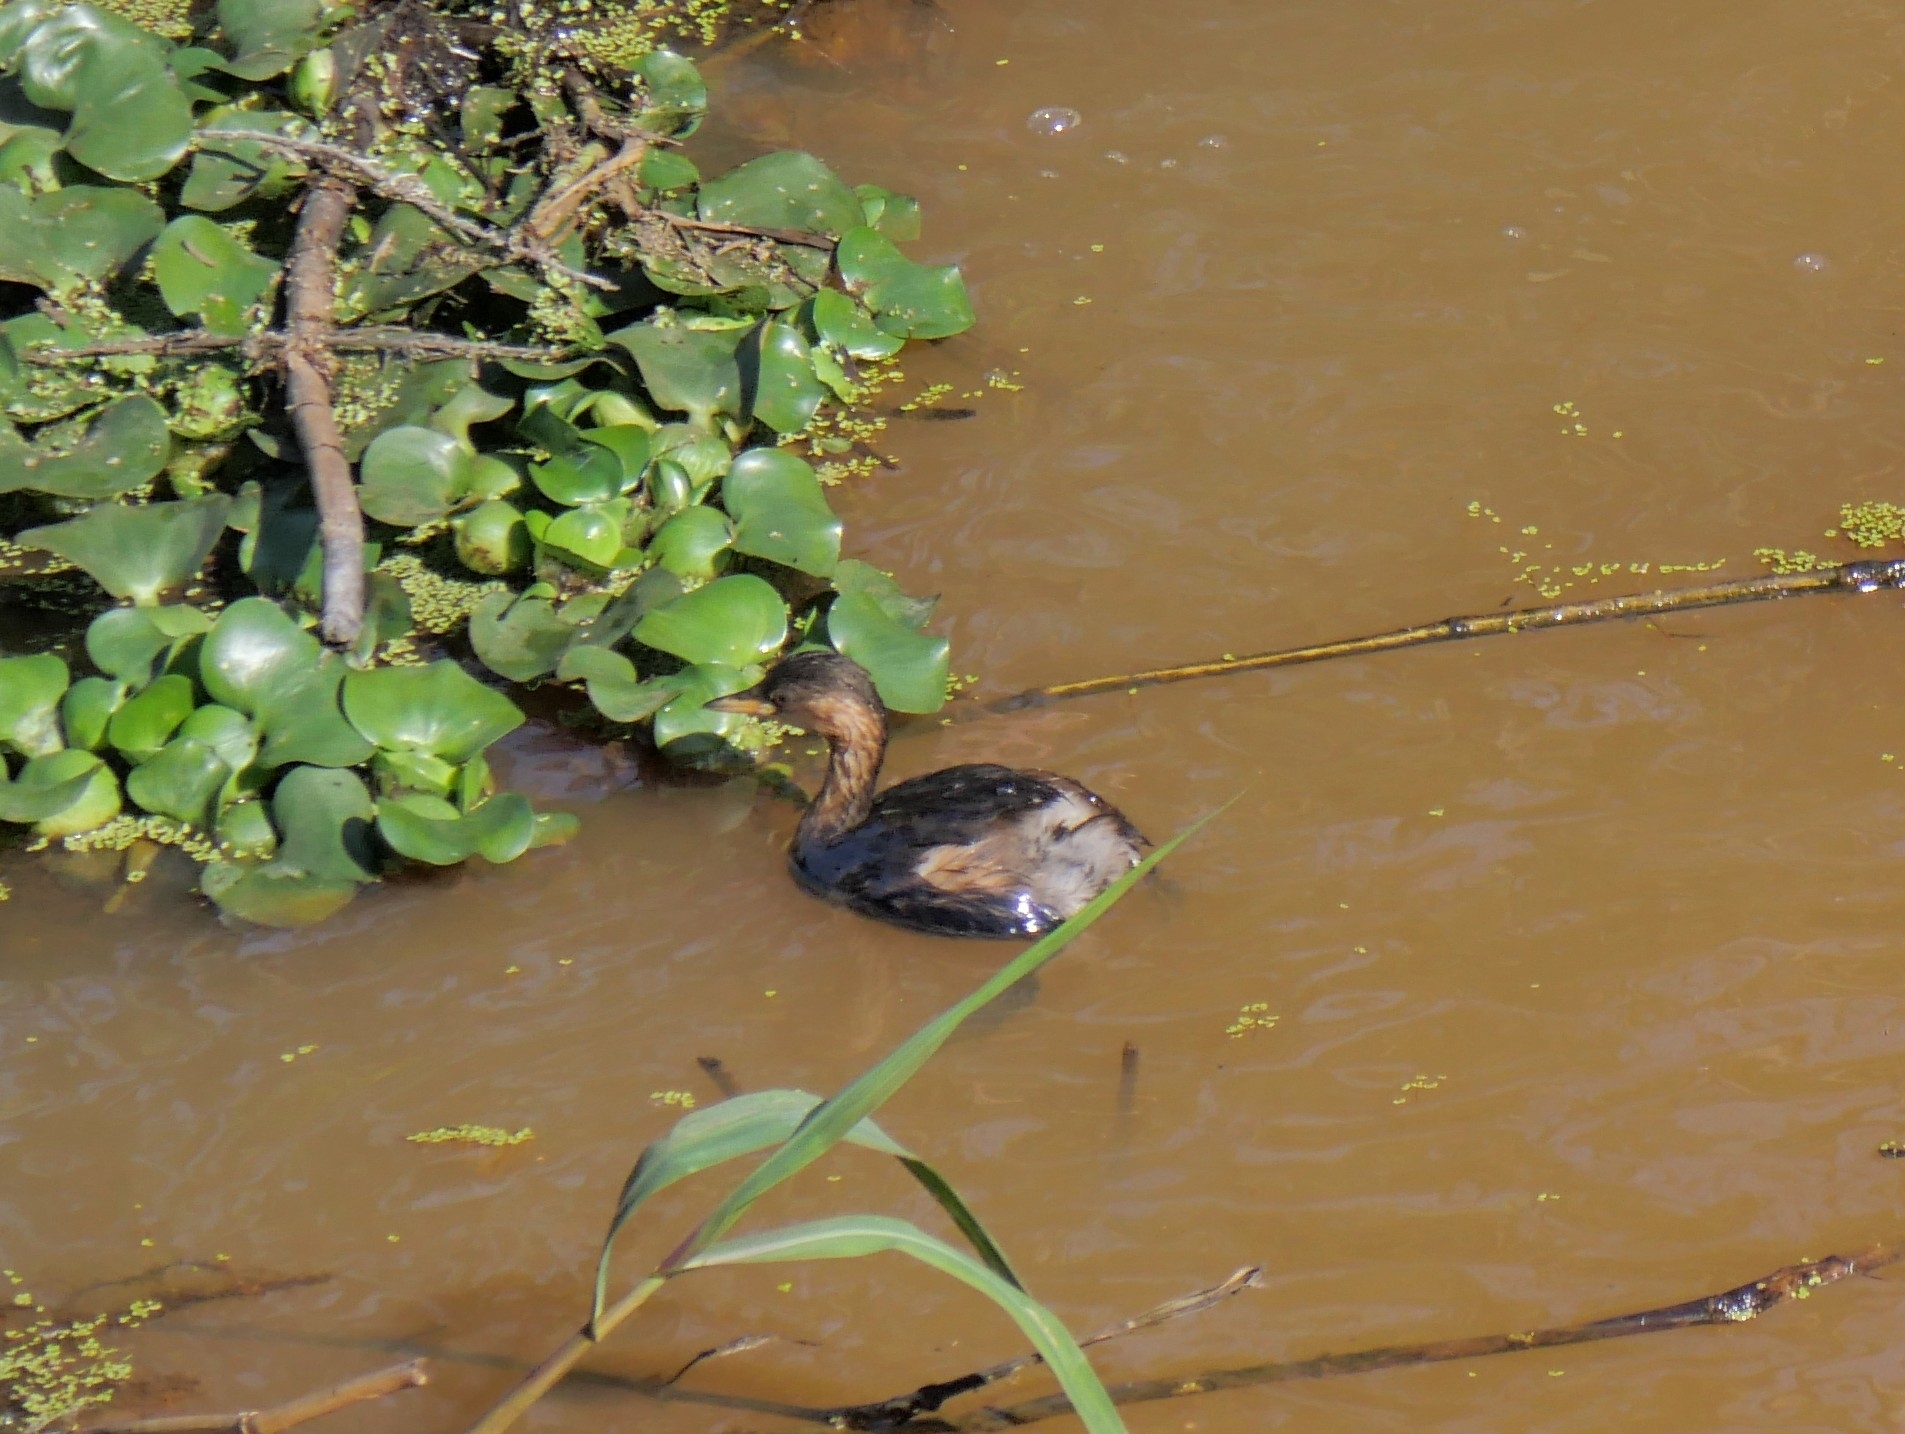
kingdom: Animalia
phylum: Chordata
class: Aves
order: Podicipediformes
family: Podicipedidae
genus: Tachybaptus
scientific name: Tachybaptus ruficollis
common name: Little grebe
